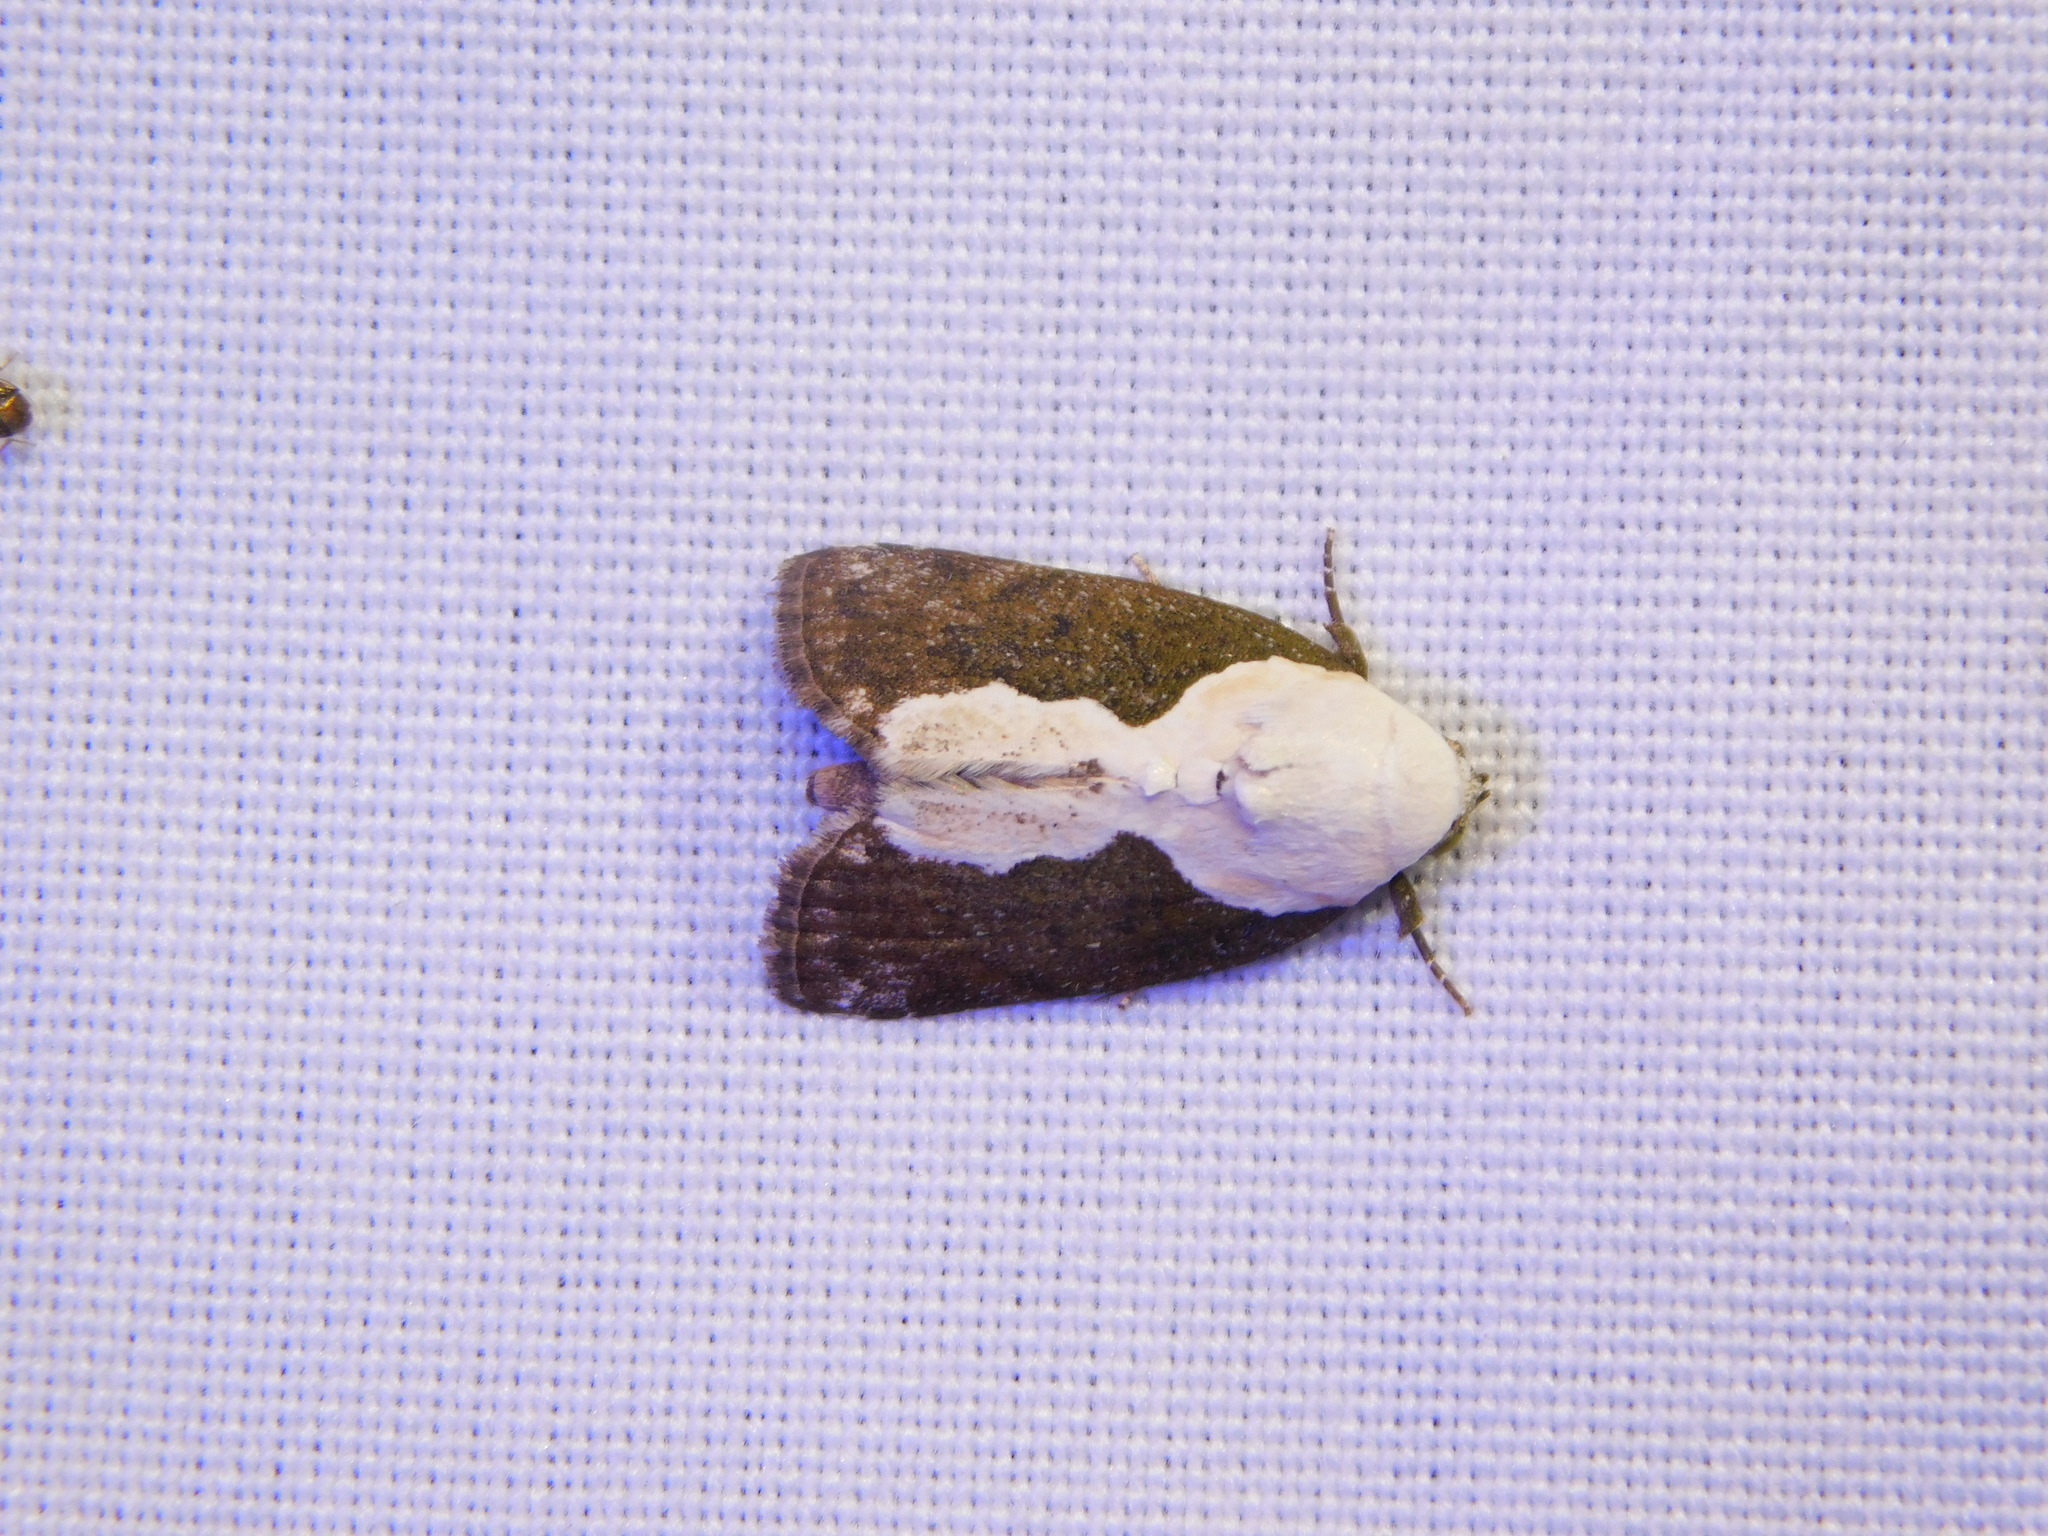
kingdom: Animalia
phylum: Arthropoda
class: Insecta
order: Lepidoptera
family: Nolidae
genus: Tathothripa
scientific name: Tathothripa continua
